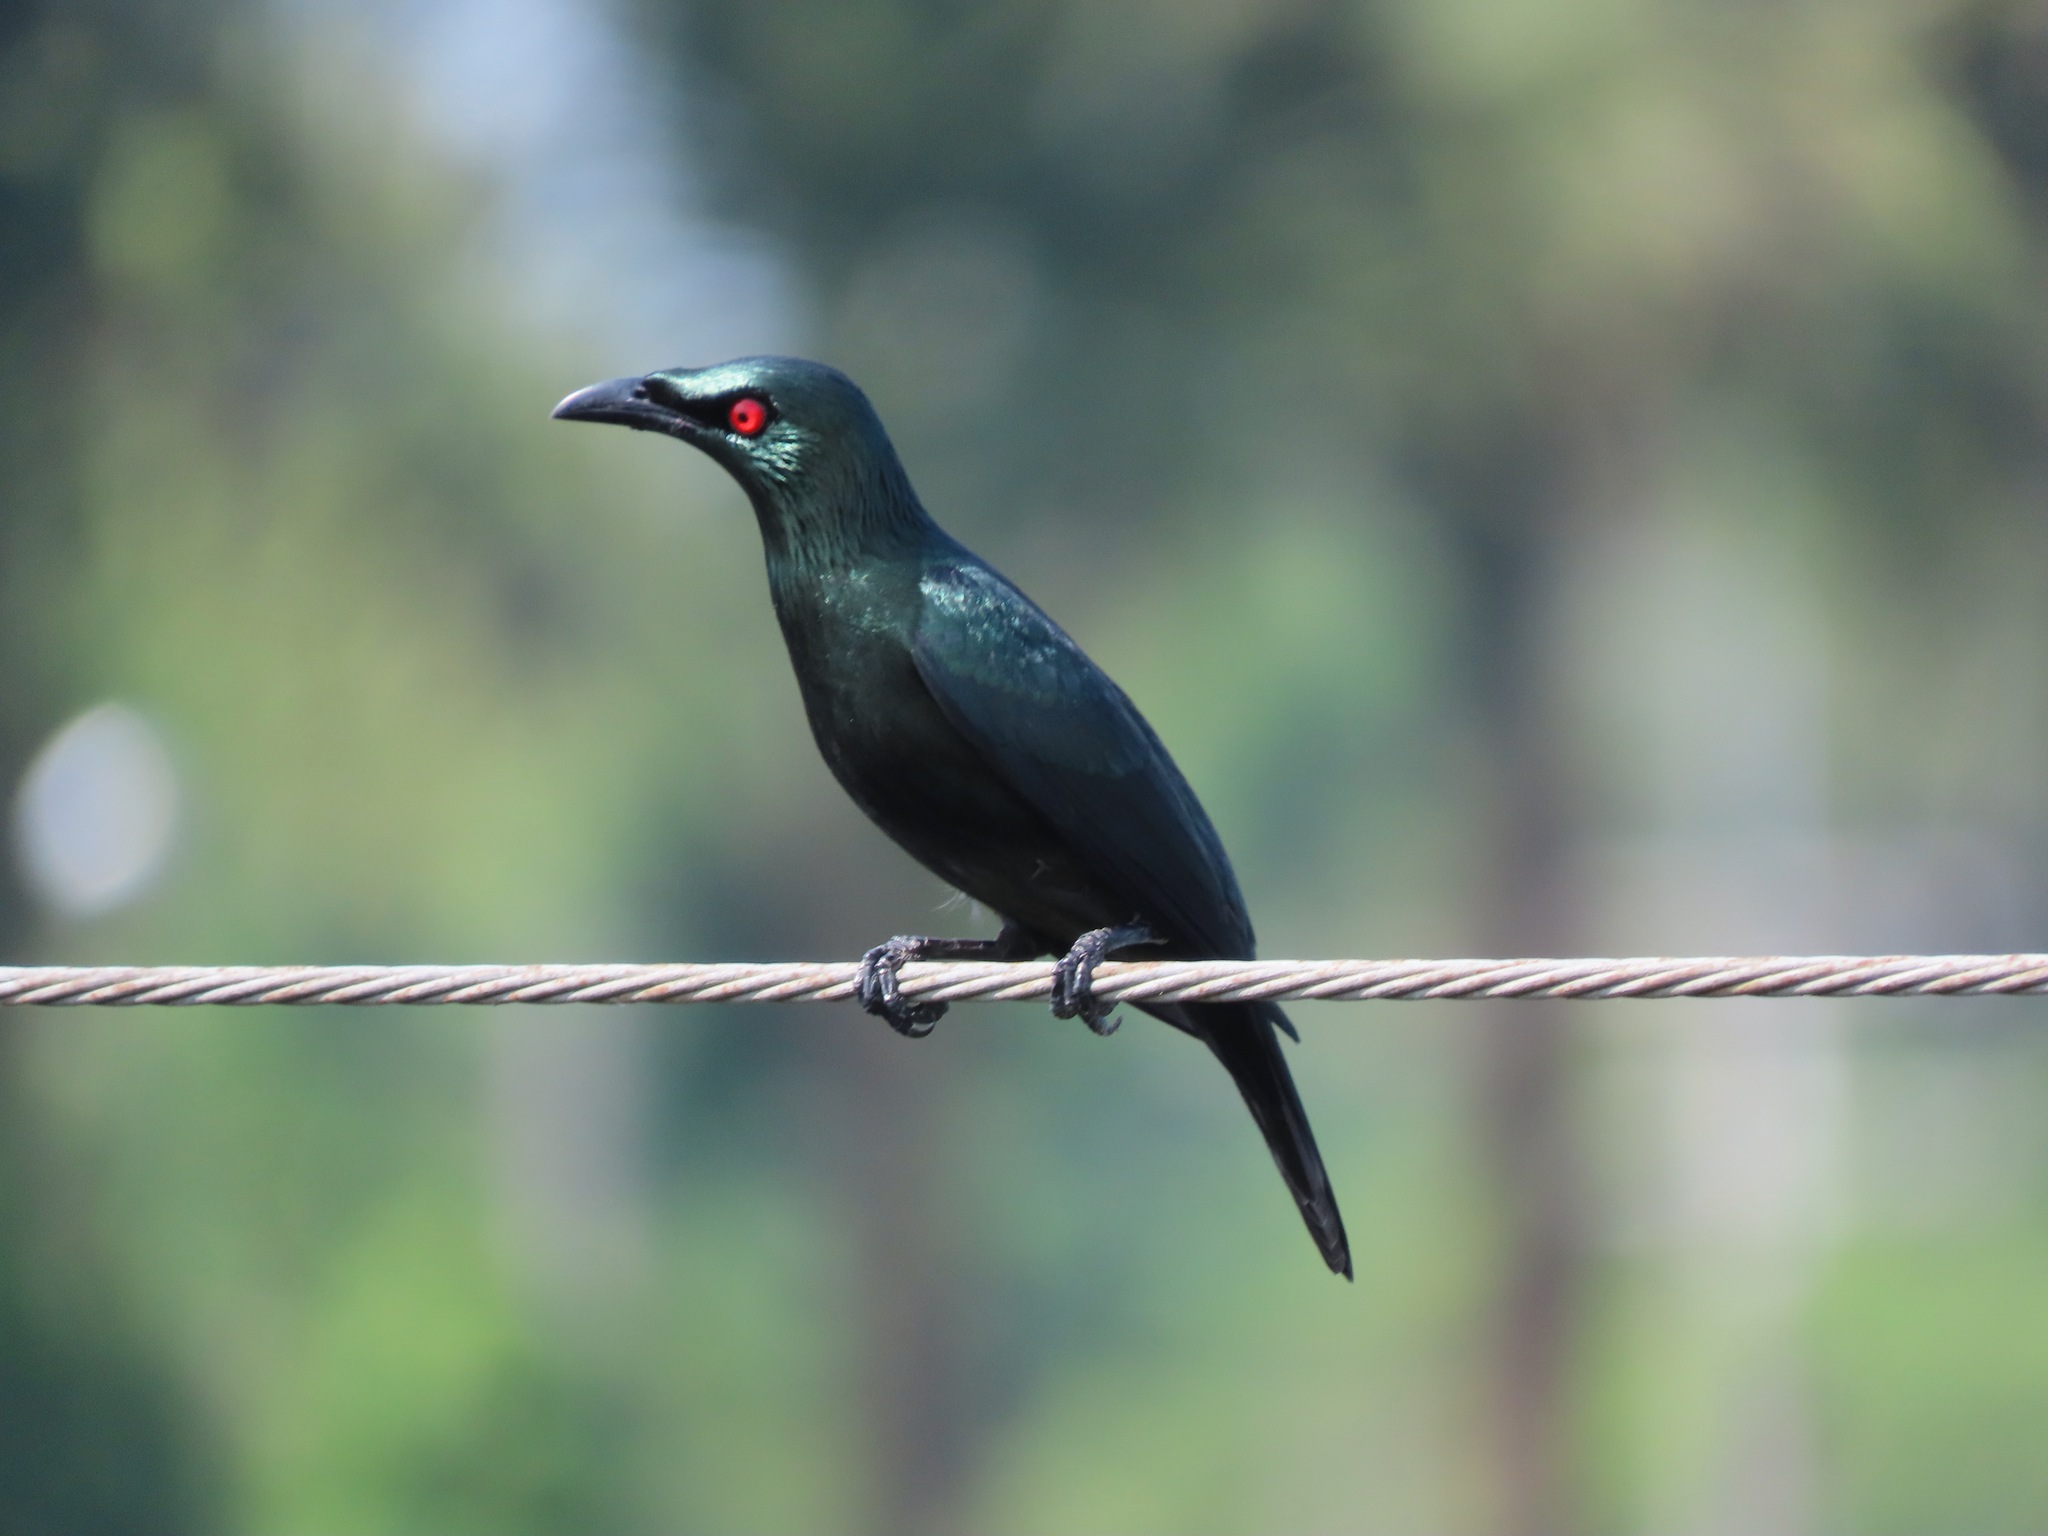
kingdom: Animalia
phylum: Chordata
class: Aves
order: Passeriformes
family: Sturnidae
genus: Aplonis
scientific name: Aplonis panayensis
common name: Asian glossy starling
